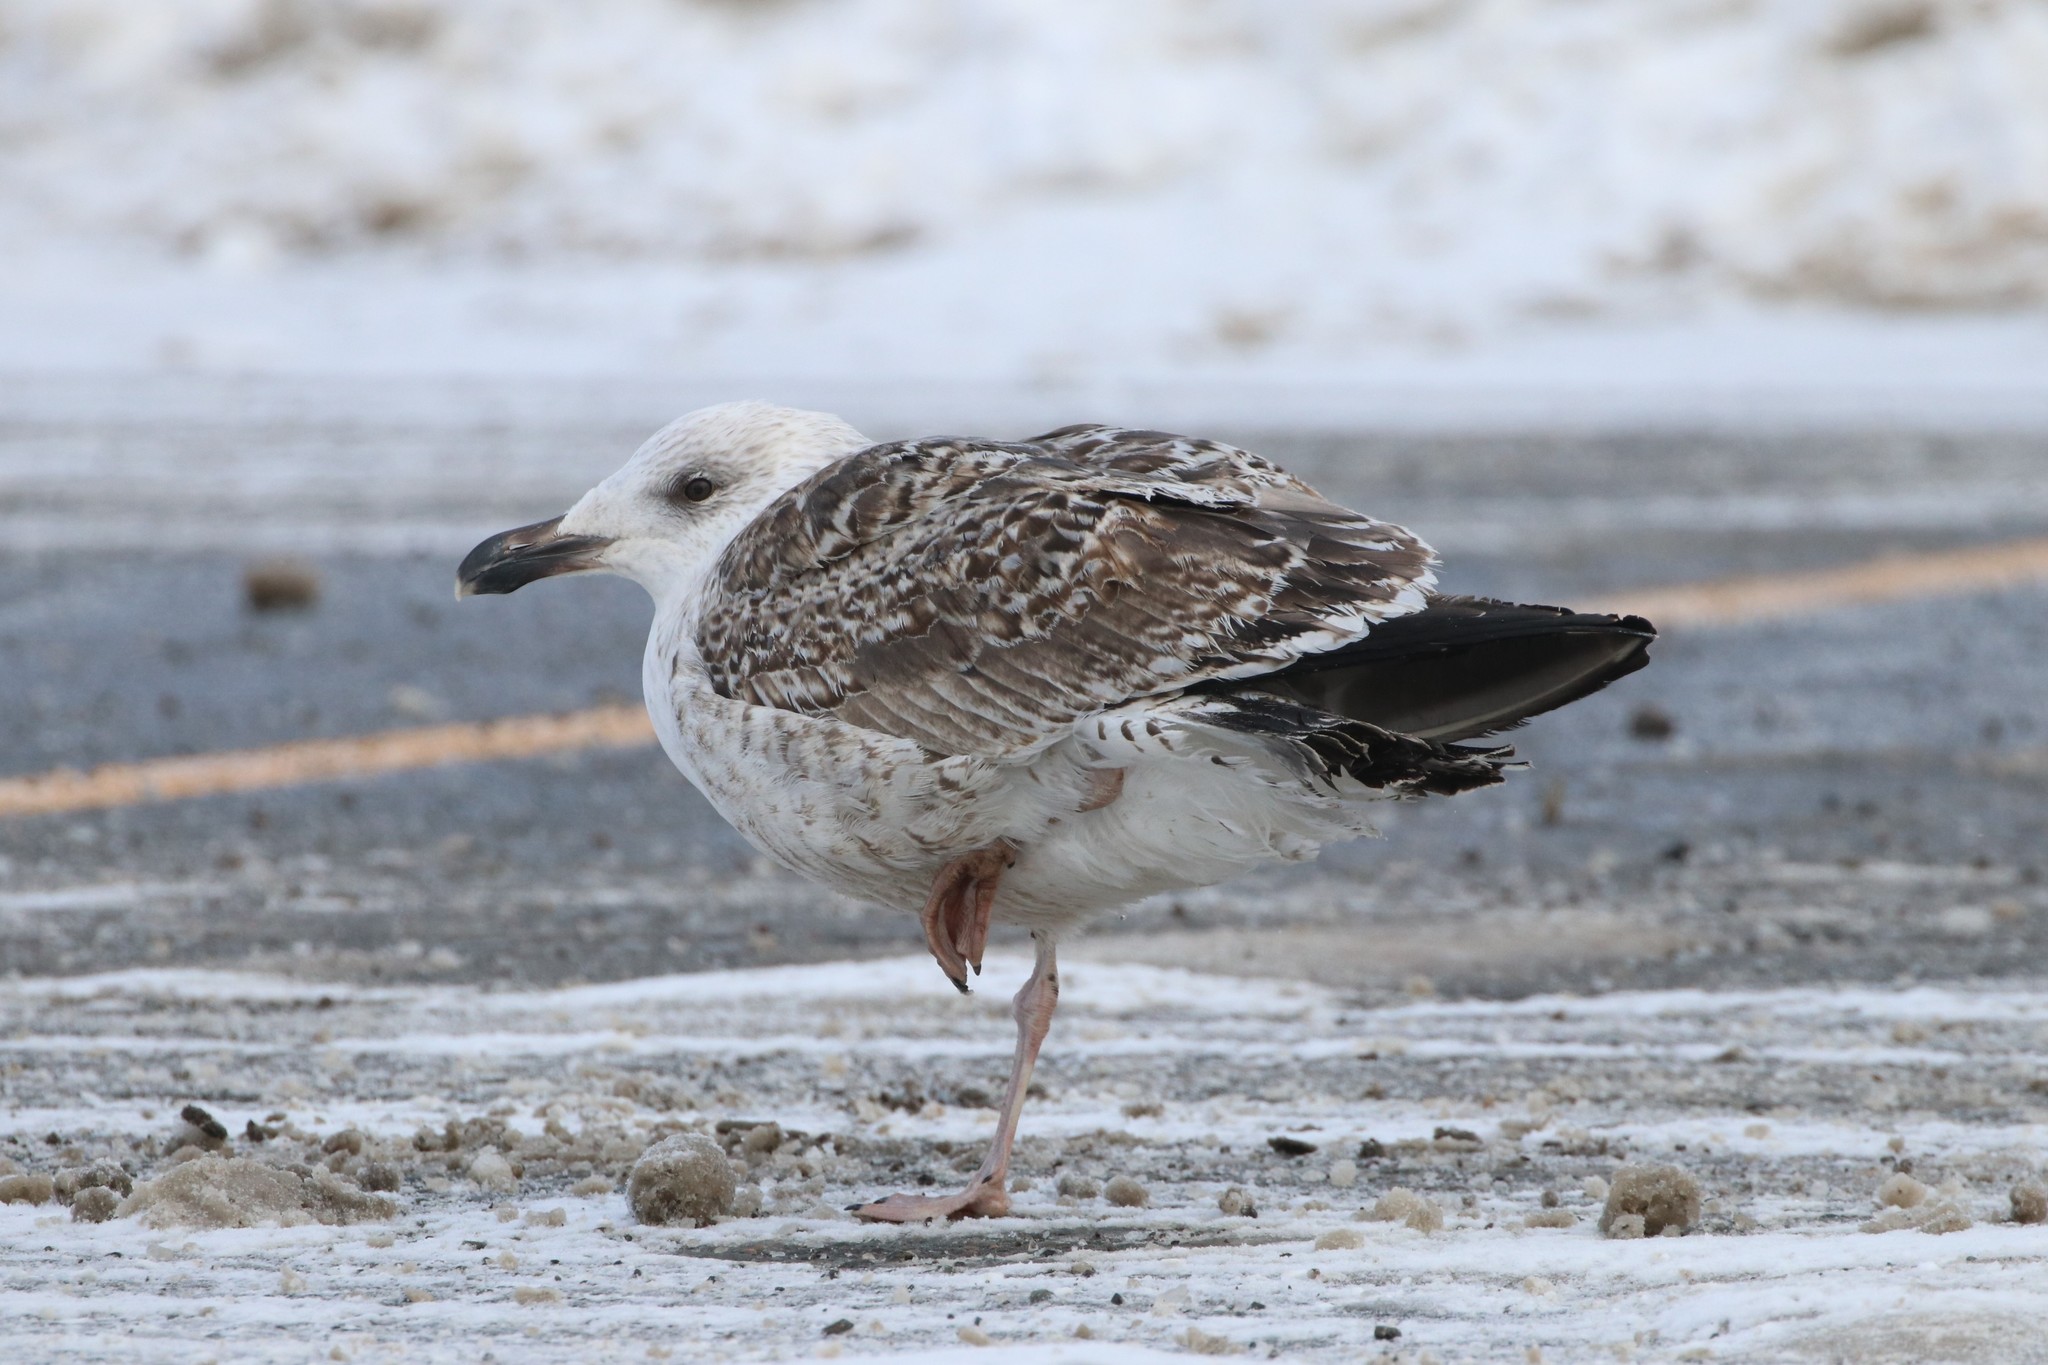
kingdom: Animalia
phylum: Chordata
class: Aves
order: Charadriiformes
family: Laridae
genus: Larus
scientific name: Larus marinus
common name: Great black-backed gull
